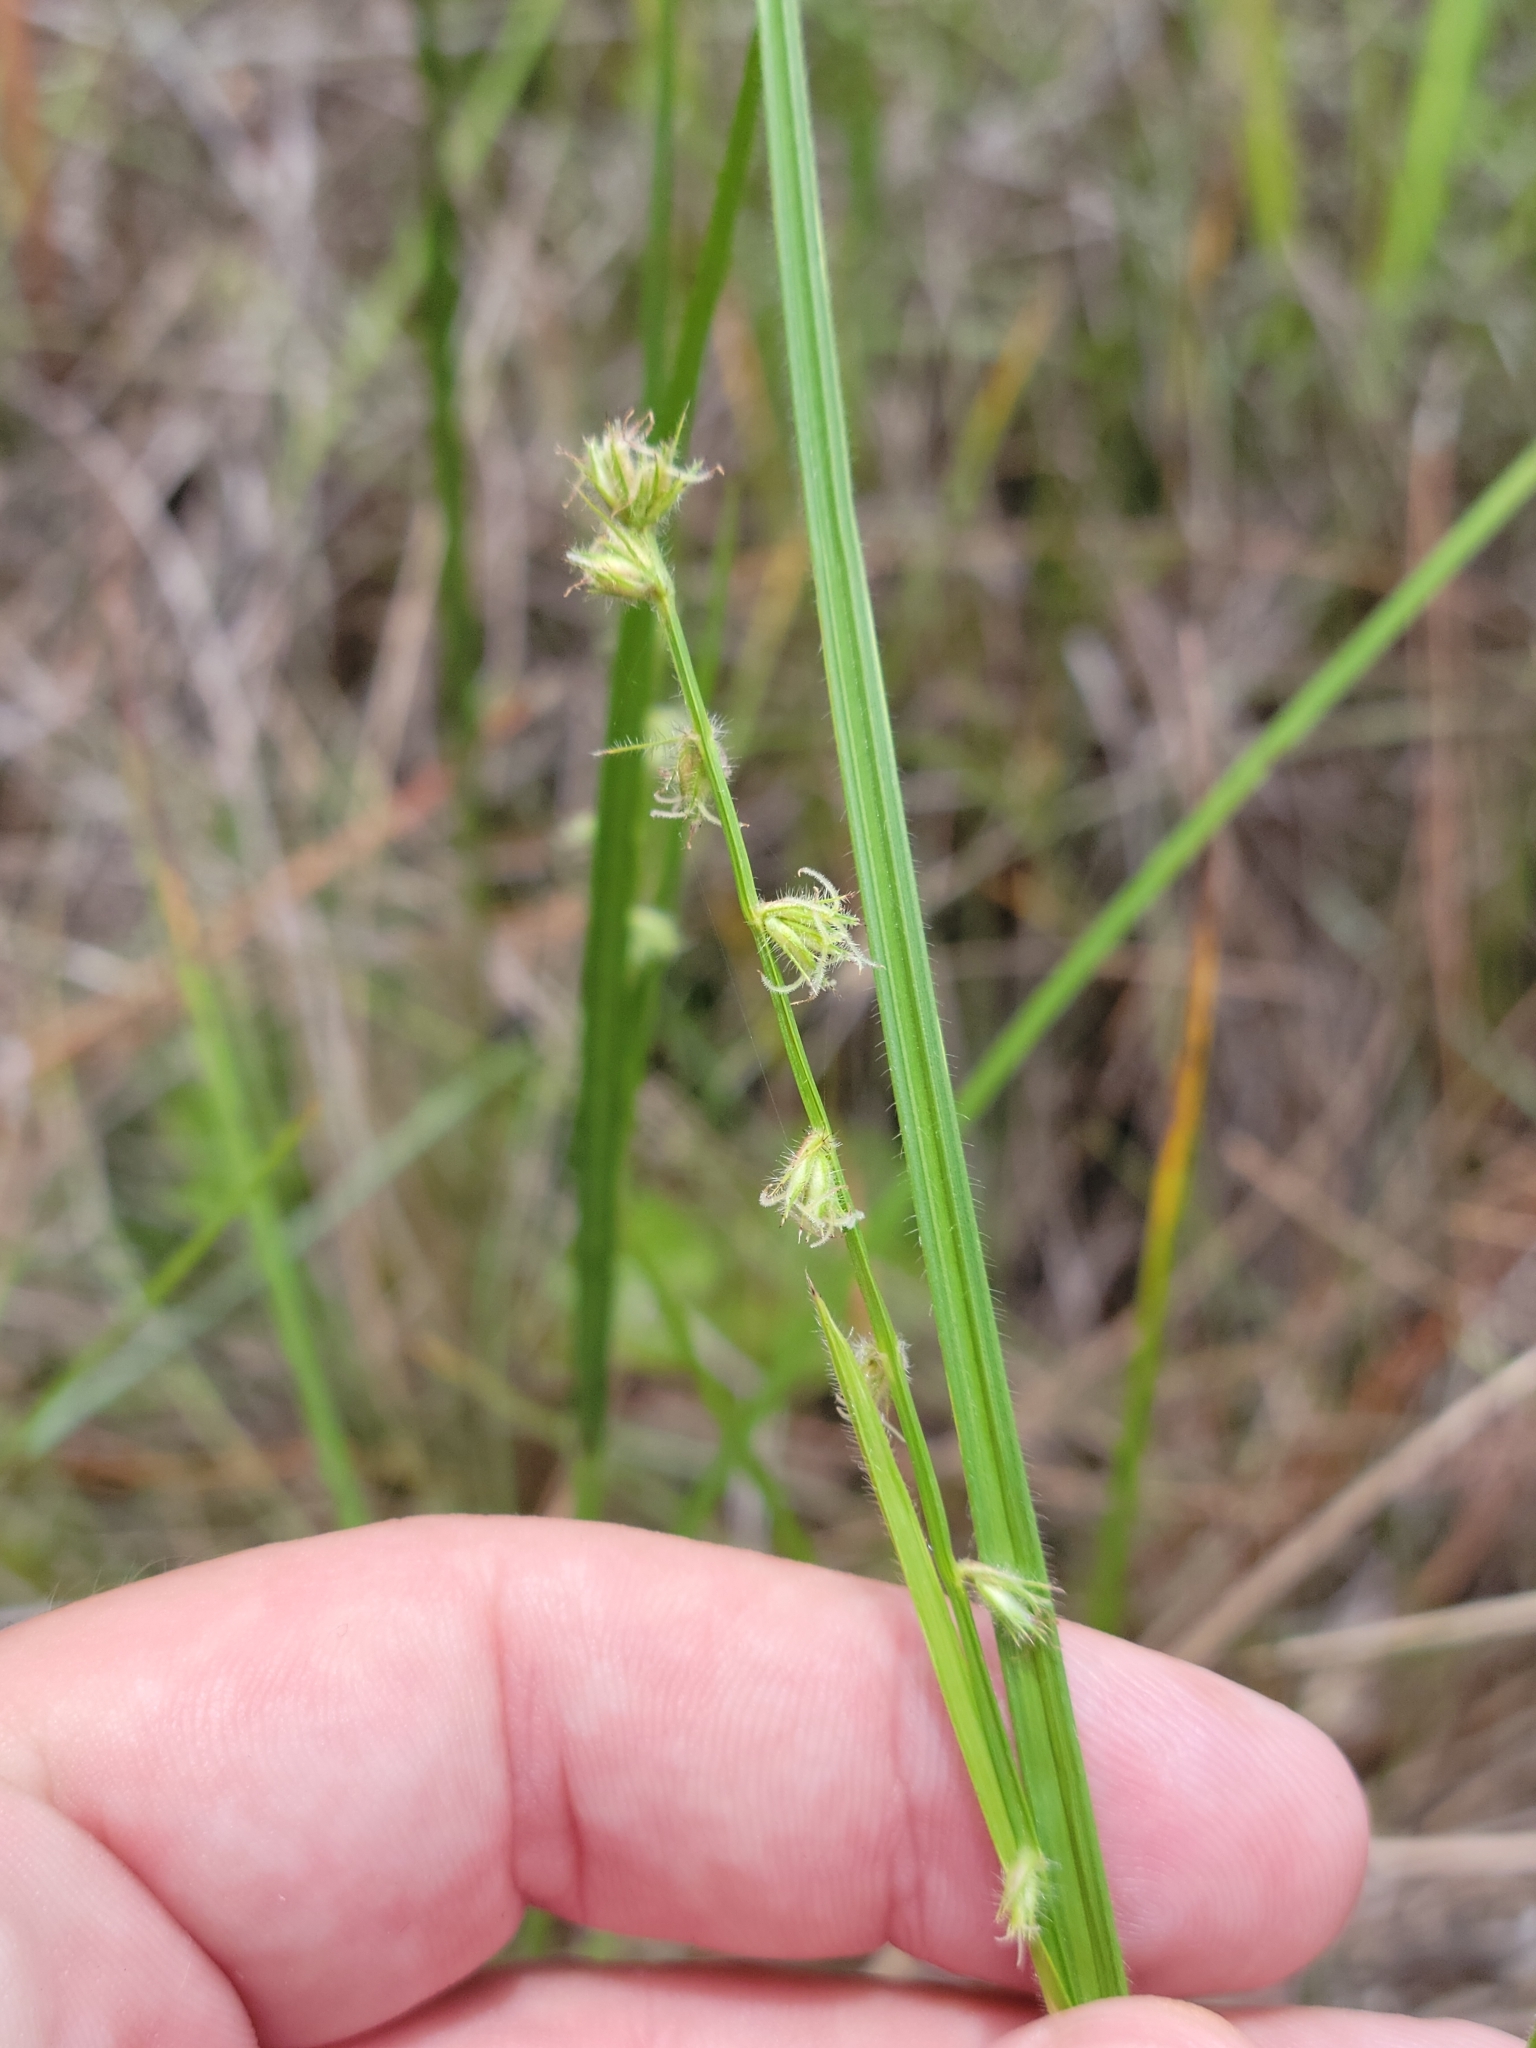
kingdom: Plantae
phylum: Tracheophyta
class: Liliopsida
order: Poales
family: Cyperaceae
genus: Scleria
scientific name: Scleria distans
